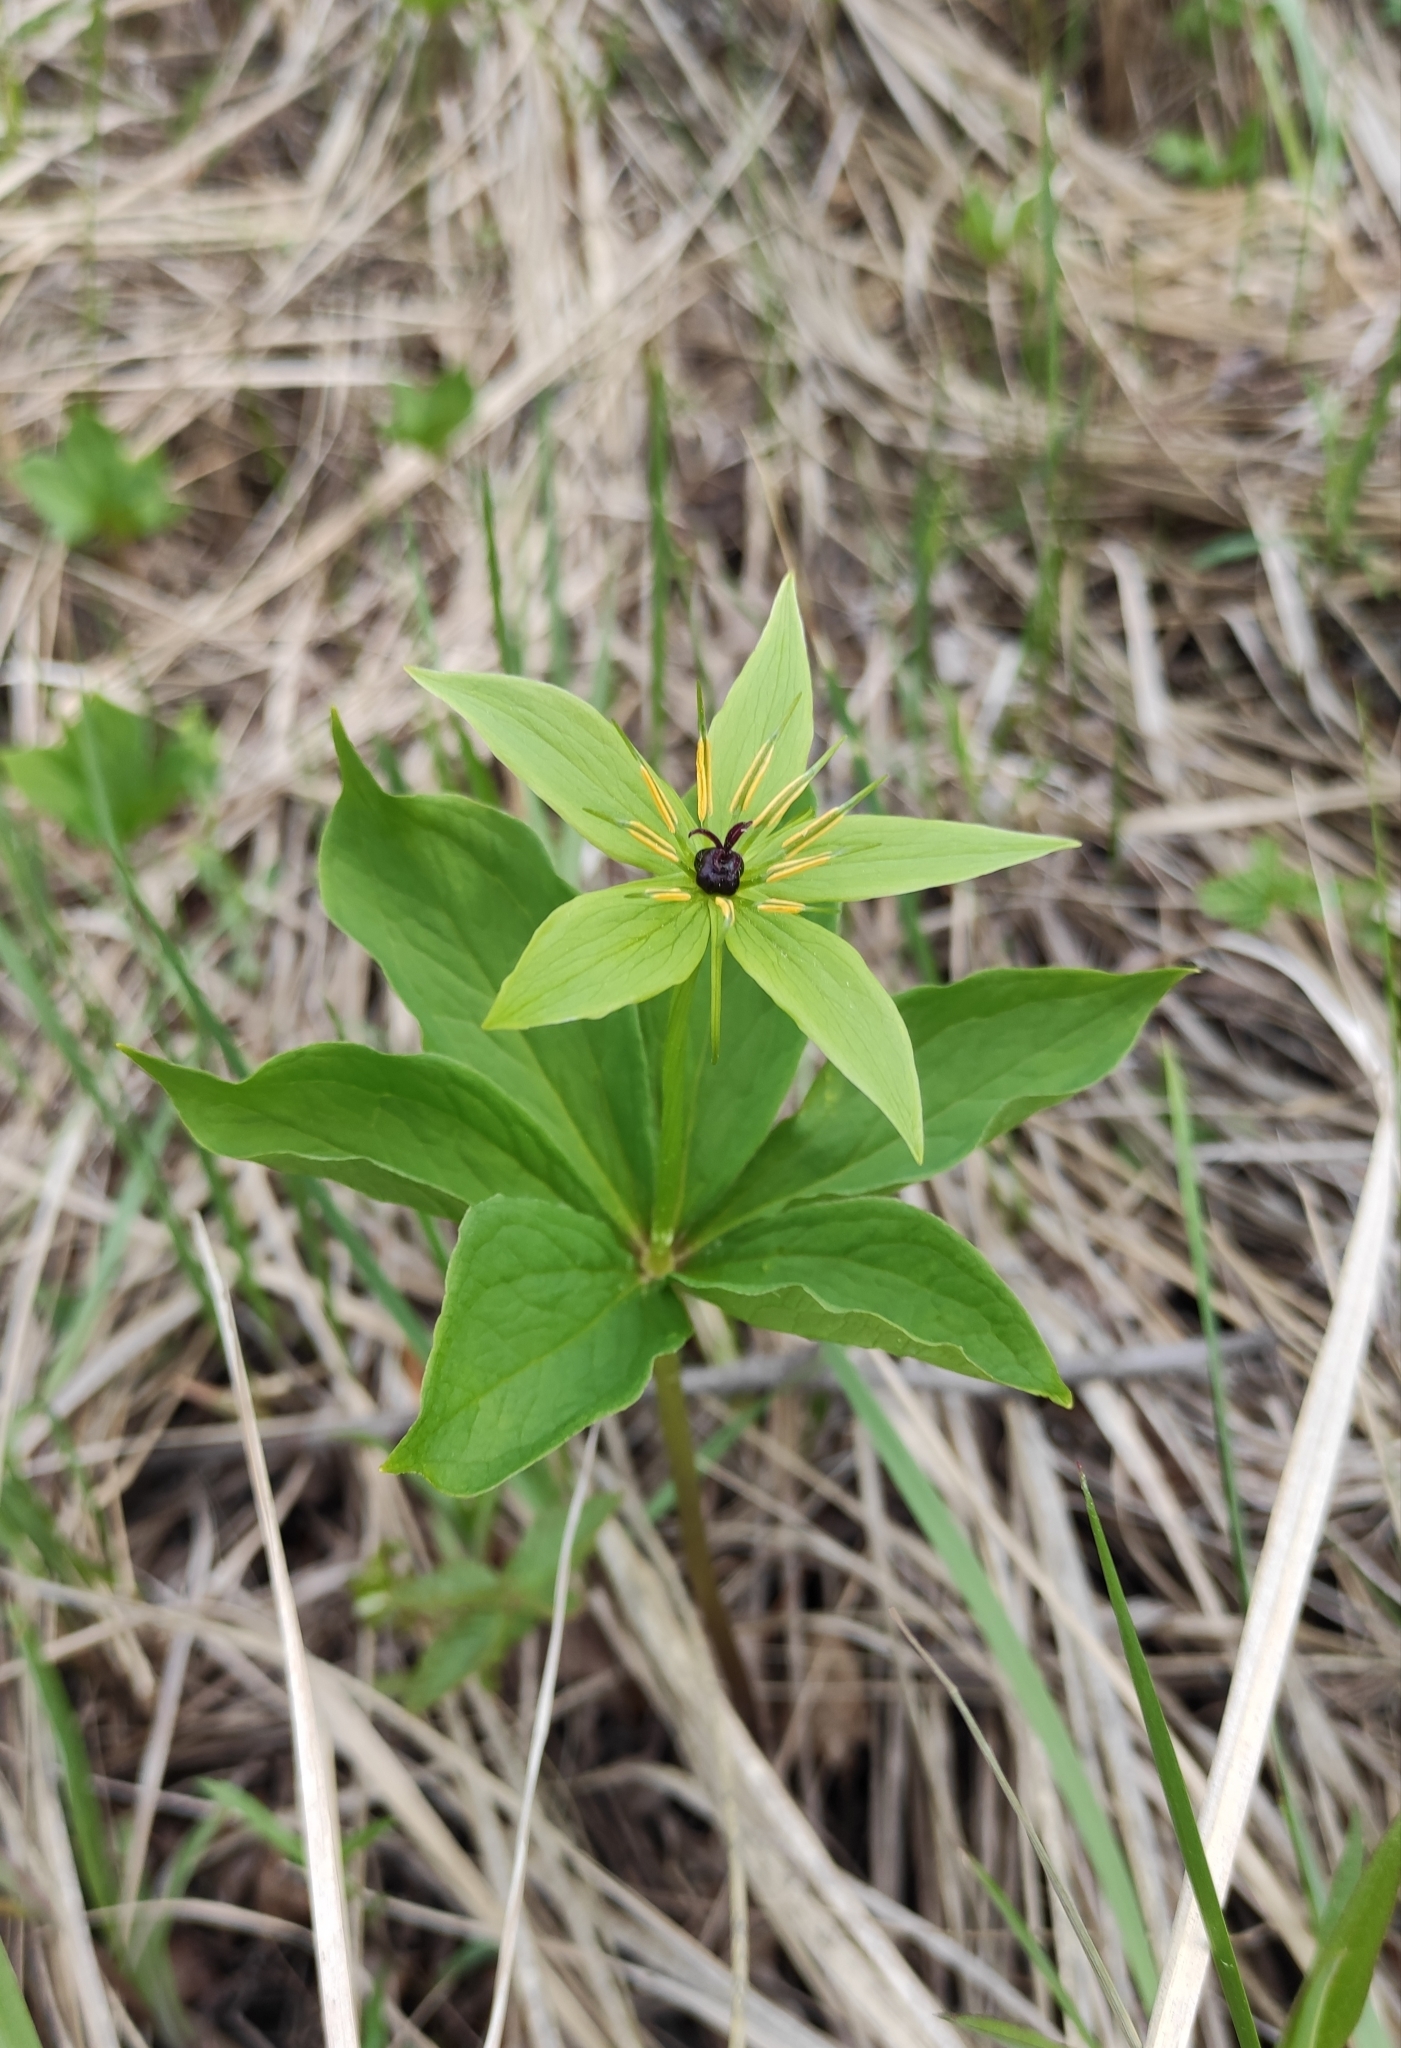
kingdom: Plantae
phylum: Tracheophyta
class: Liliopsida
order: Liliales
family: Melanthiaceae
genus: Paris
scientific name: Paris verticillata
